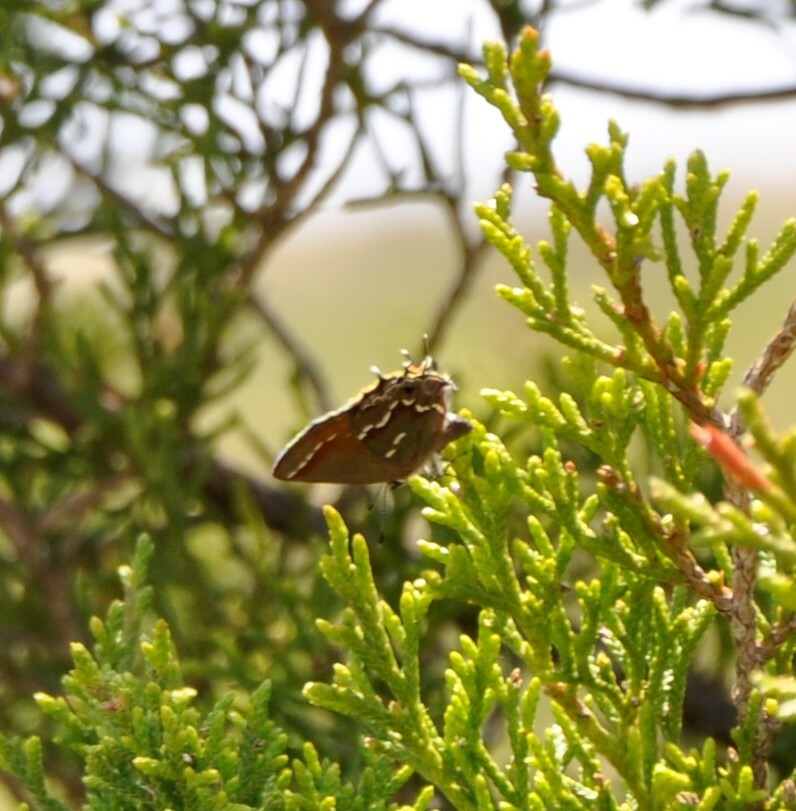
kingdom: Animalia
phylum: Arthropoda
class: Insecta
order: Lepidoptera
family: Lycaenidae
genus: Mitoura
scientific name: Mitoura gryneus
